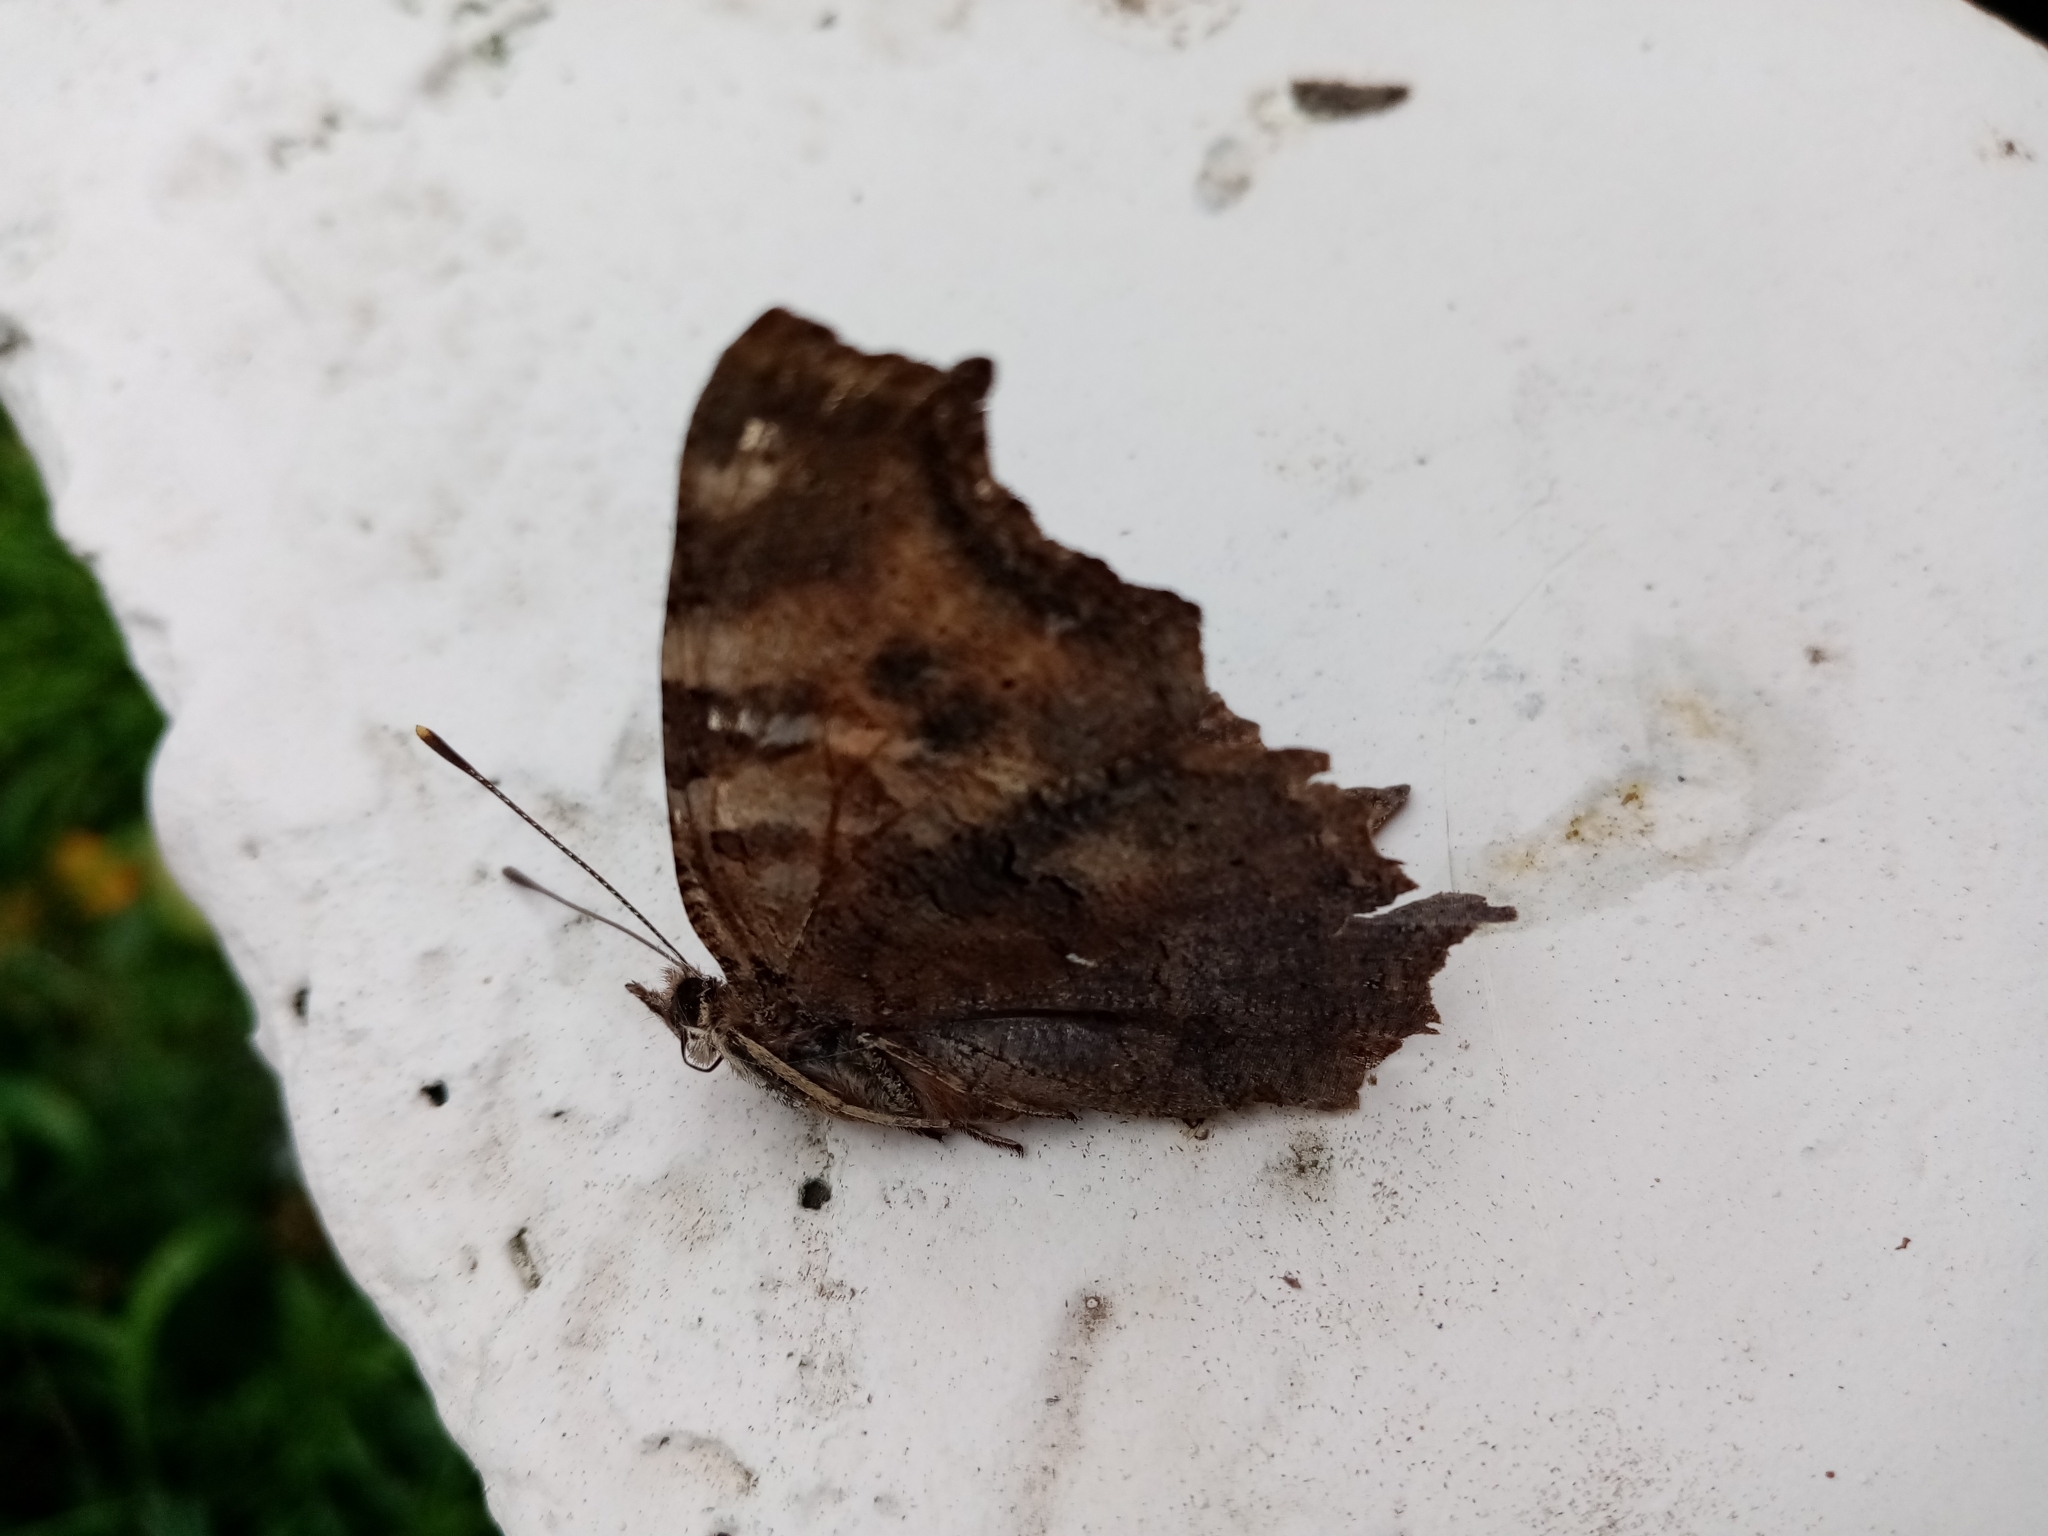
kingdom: Animalia
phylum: Arthropoda
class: Insecta
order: Lepidoptera
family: Nymphalidae
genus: Polygonia
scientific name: Polygonia vaualbum
